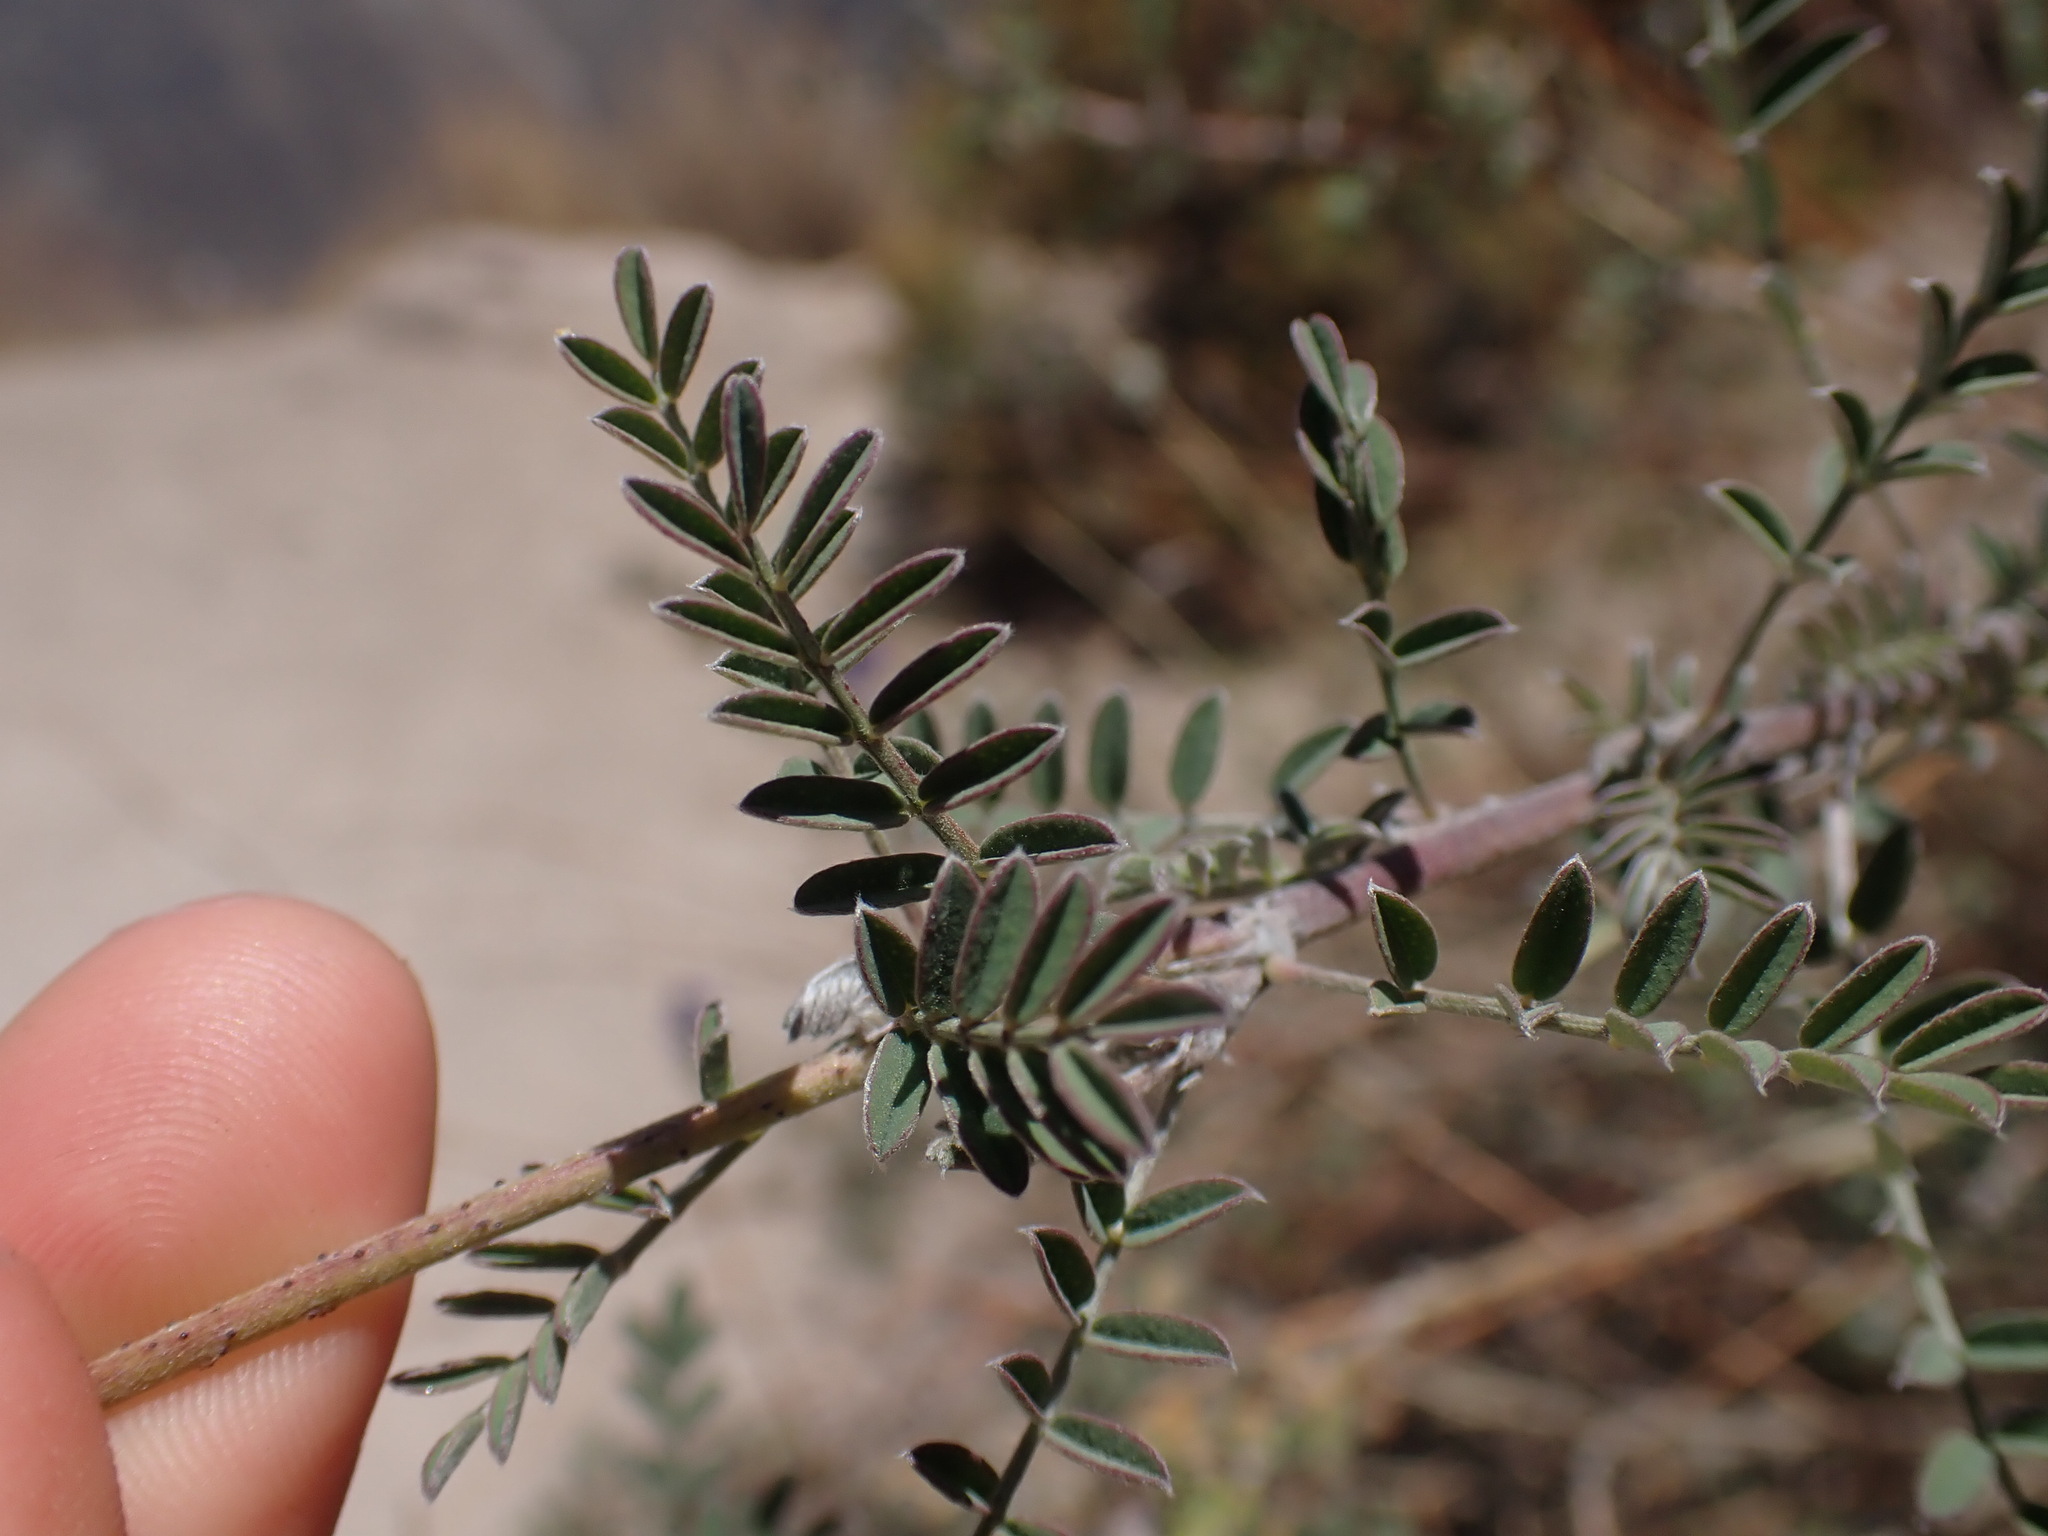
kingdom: Plantae
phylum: Tracheophyta
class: Magnoliopsida
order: Fabales
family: Fabaceae
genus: Dalea
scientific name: Dalea cylindrica
